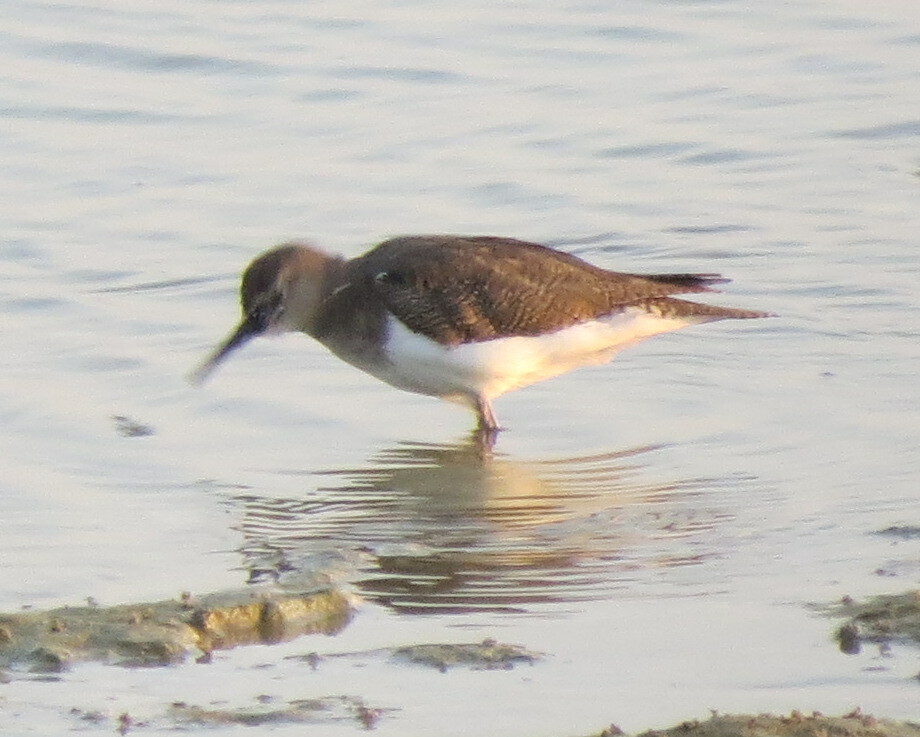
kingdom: Animalia
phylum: Chordata
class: Aves
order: Charadriiformes
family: Scolopacidae
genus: Actitis
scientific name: Actitis hypoleucos
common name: Common sandpiper
